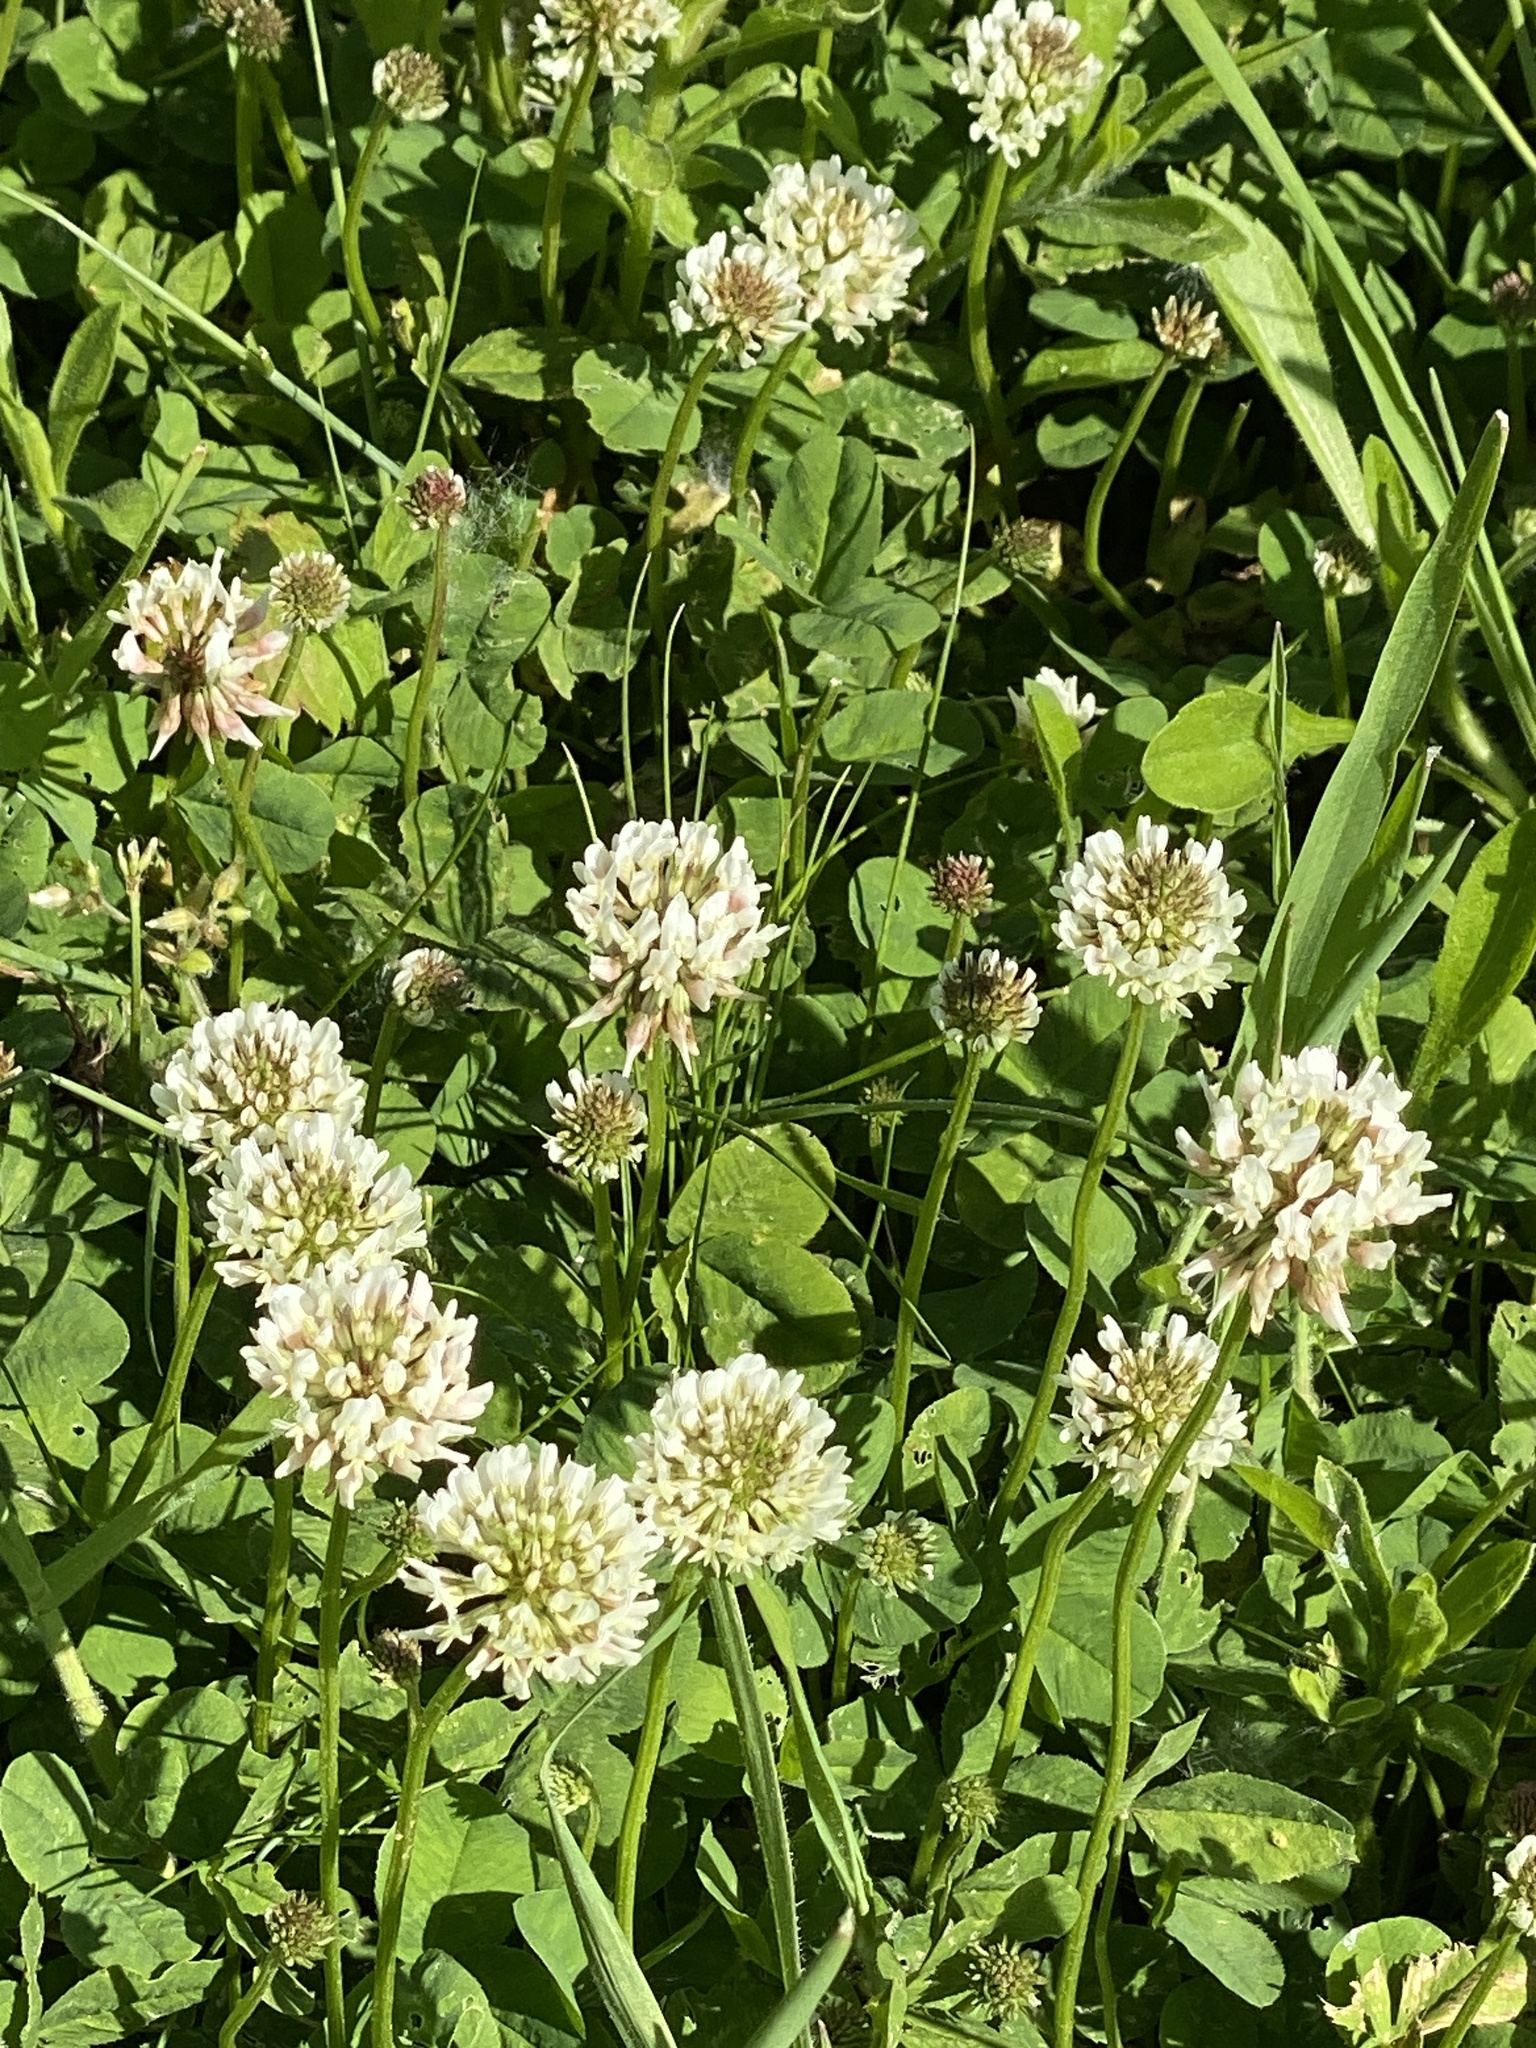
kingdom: Plantae
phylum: Tracheophyta
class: Magnoliopsida
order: Fabales
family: Fabaceae
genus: Trifolium
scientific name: Trifolium repens
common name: White clover
